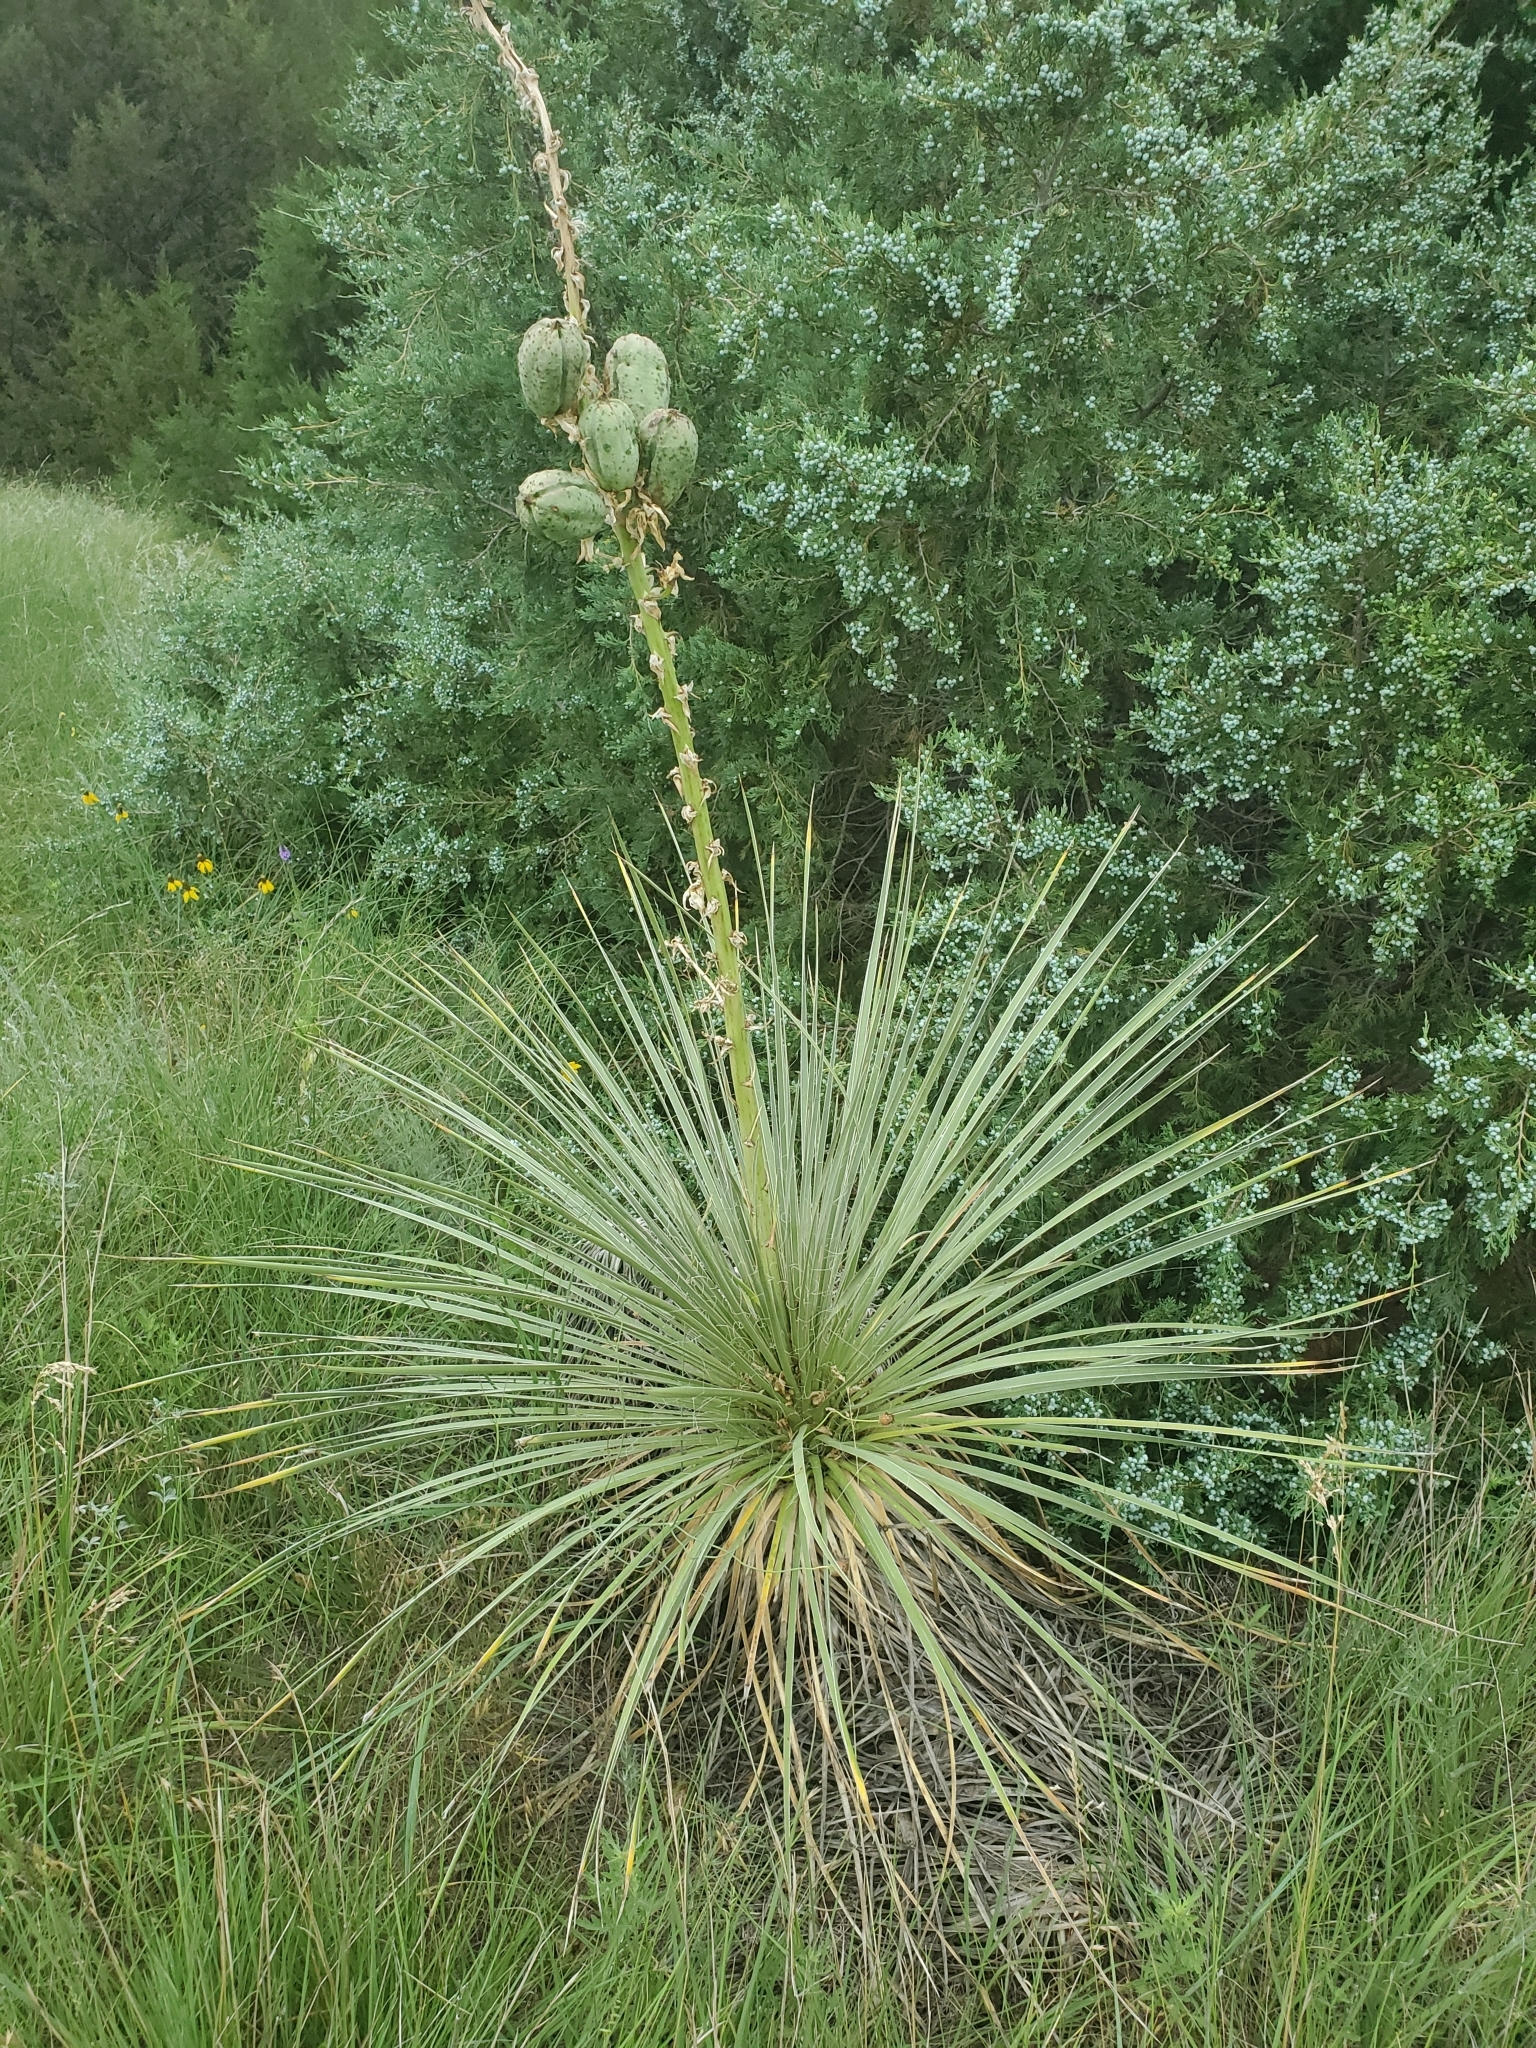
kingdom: Plantae
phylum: Tracheophyta
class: Liliopsida
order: Asparagales
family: Asparagaceae
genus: Yucca
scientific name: Yucca glauca
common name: Great plains yucca
